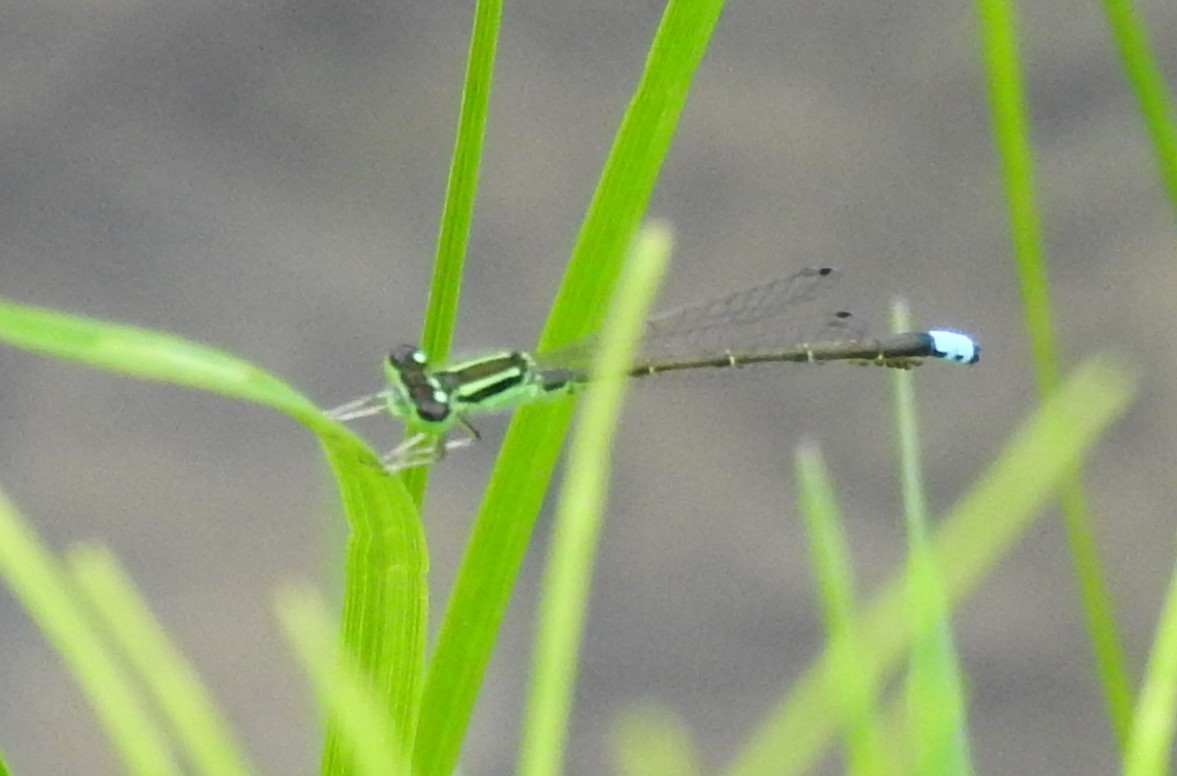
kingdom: Animalia
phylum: Arthropoda
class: Insecta
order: Odonata
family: Coenagrionidae
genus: Ischnura
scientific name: Ischnura verticalis
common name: Eastern forktail
